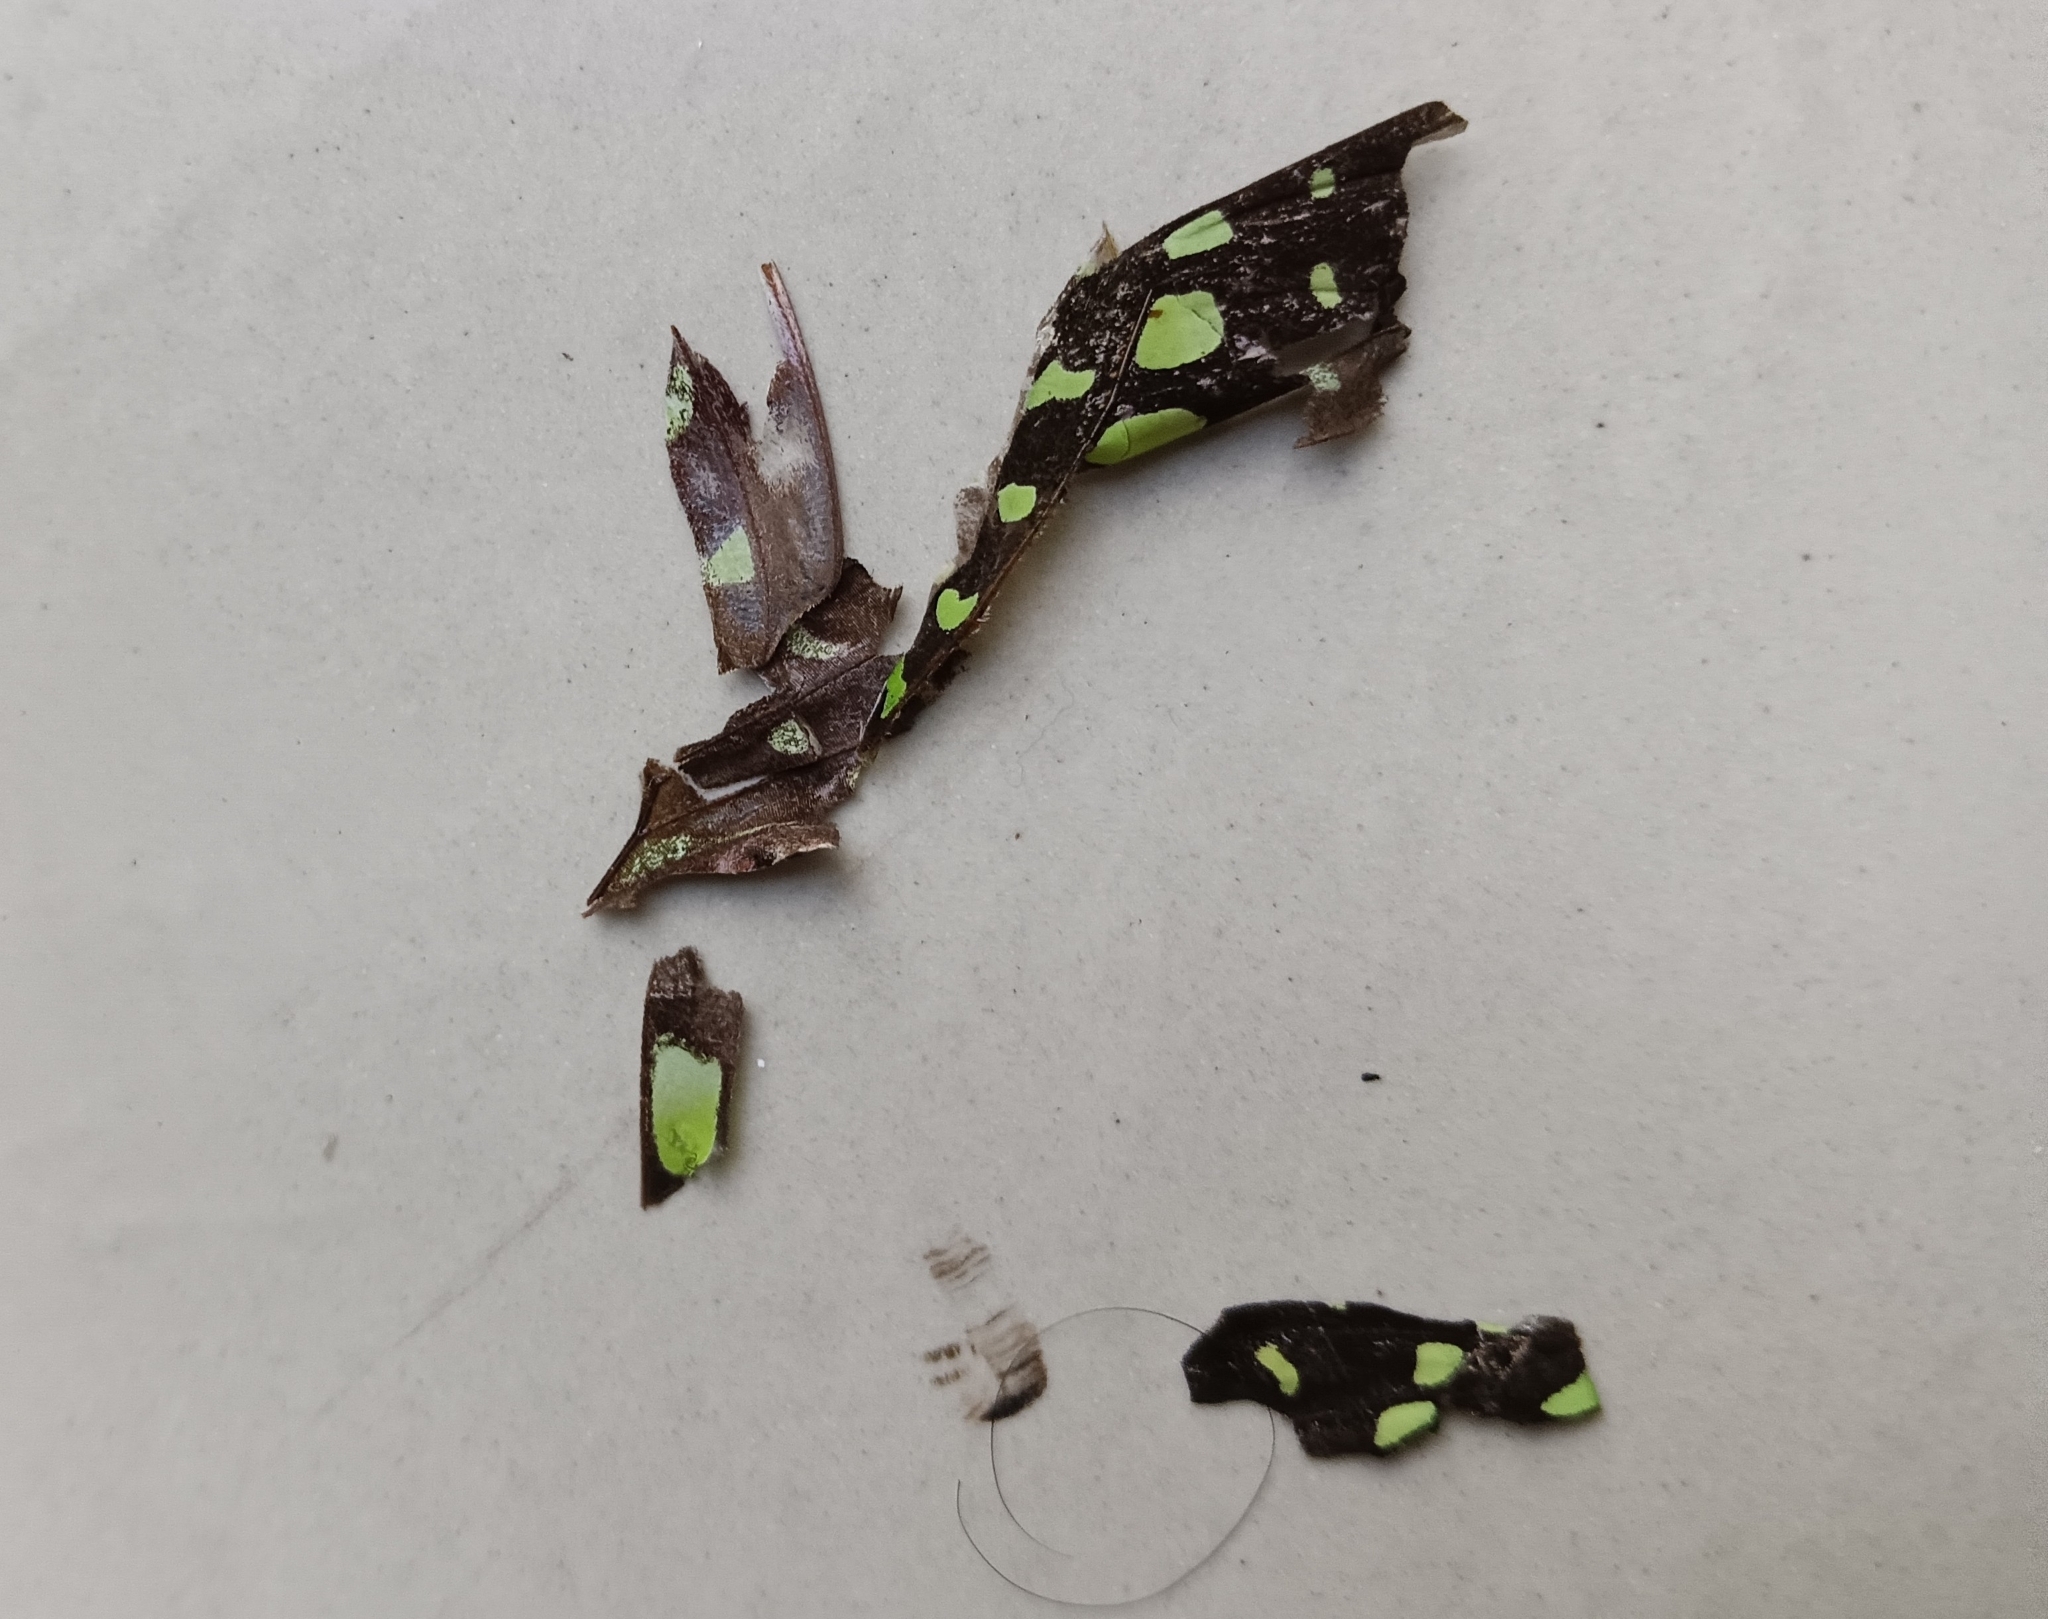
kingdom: Animalia
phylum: Arthropoda
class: Insecta
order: Lepidoptera
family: Papilionidae
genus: Graphium
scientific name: Graphium agamemnon
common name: Tailed jay
